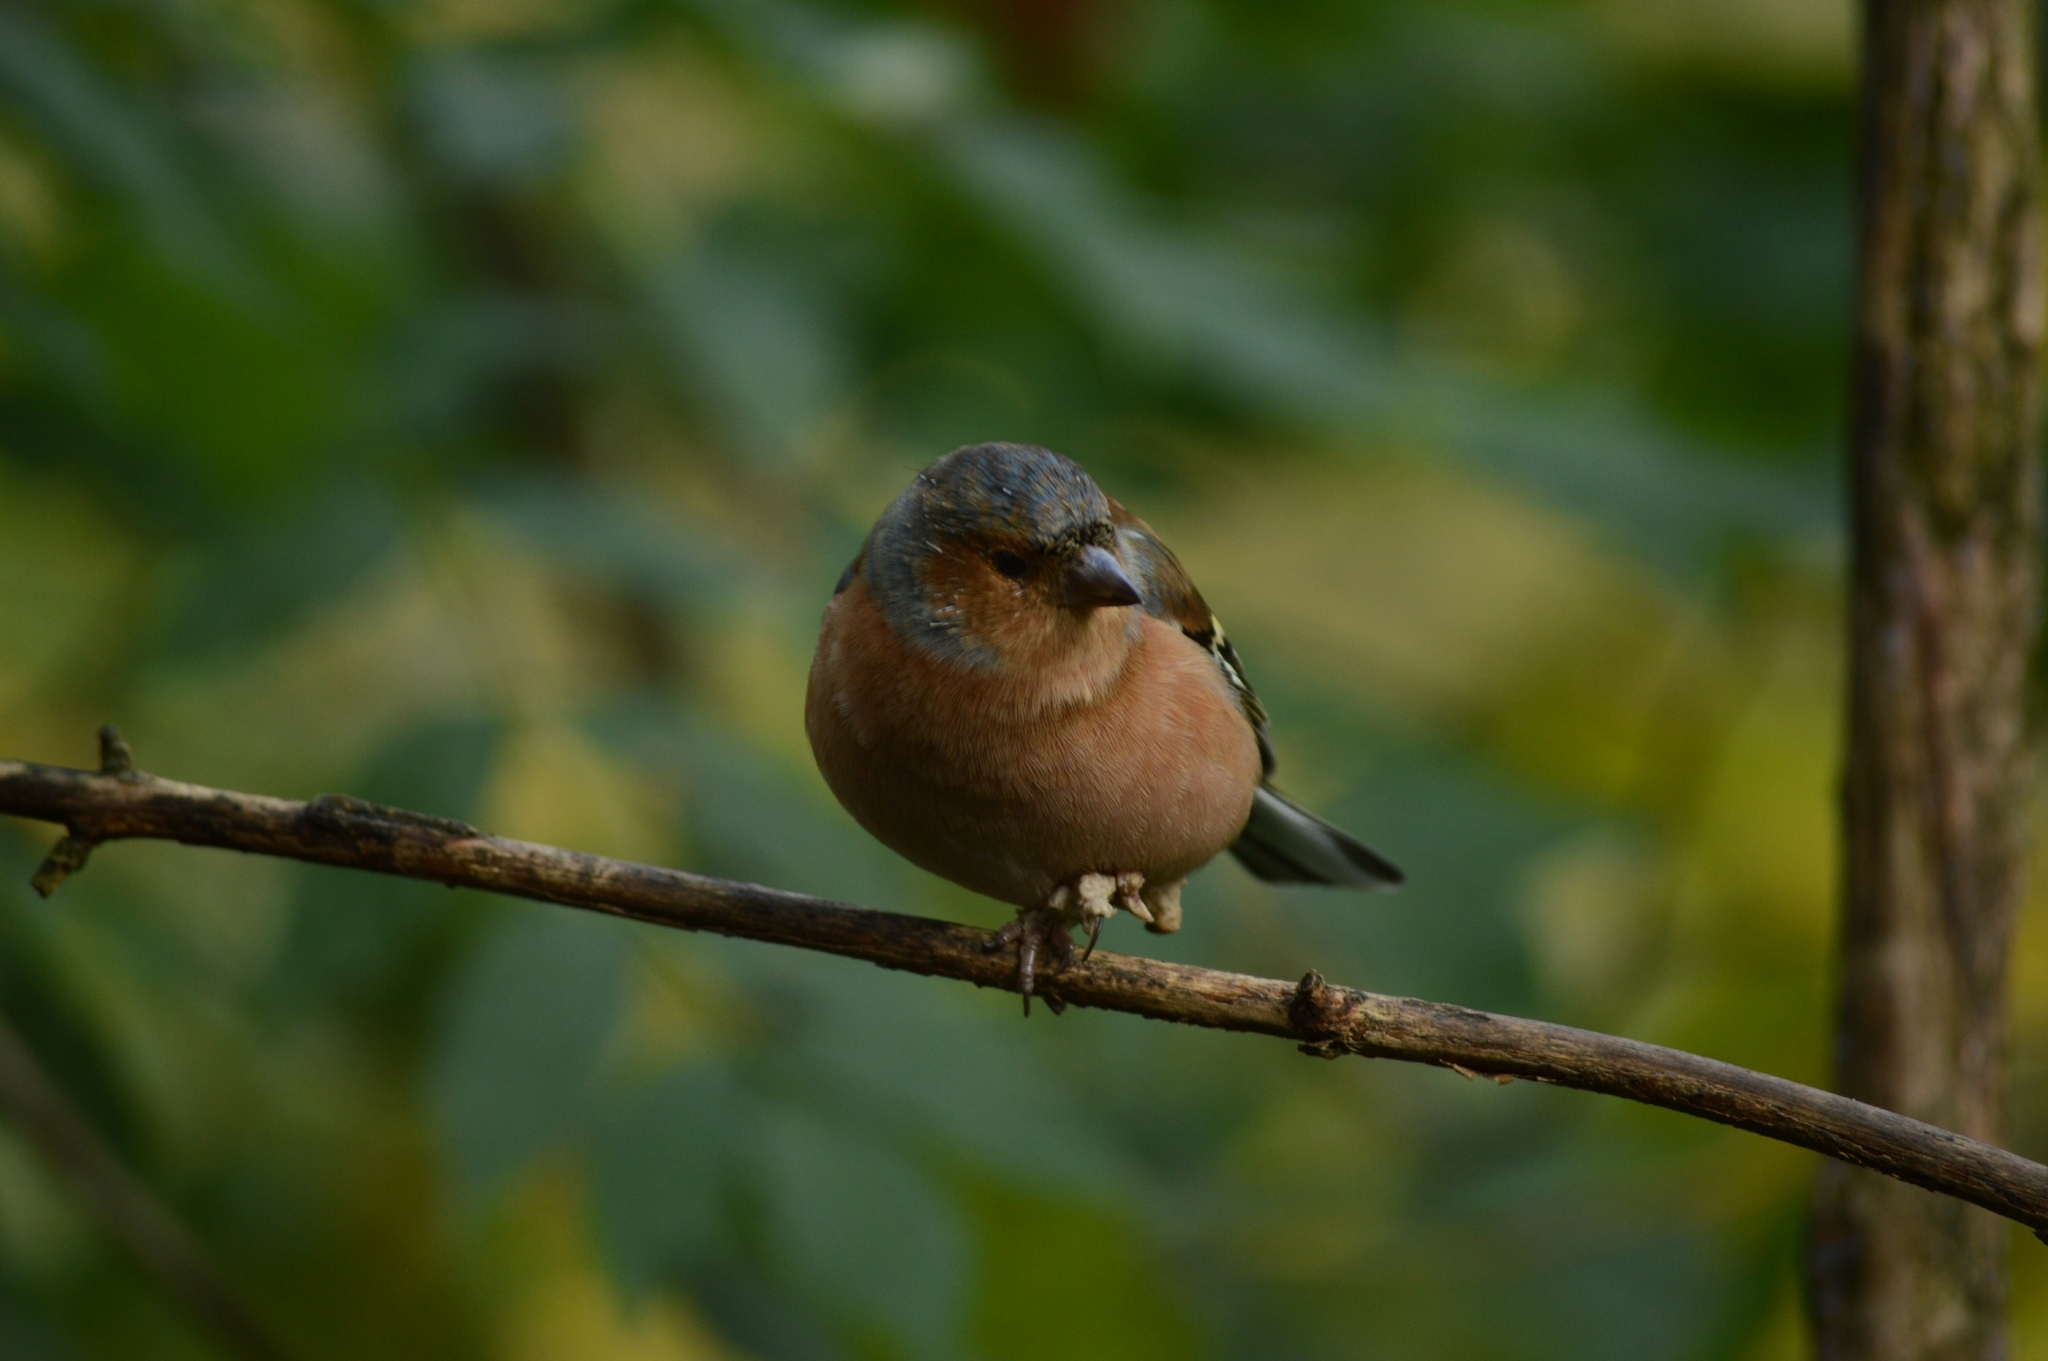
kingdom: Animalia
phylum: Chordata
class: Aves
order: Passeriformes
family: Fringillidae
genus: Fringilla
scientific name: Fringilla coelebs
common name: Common chaffinch
